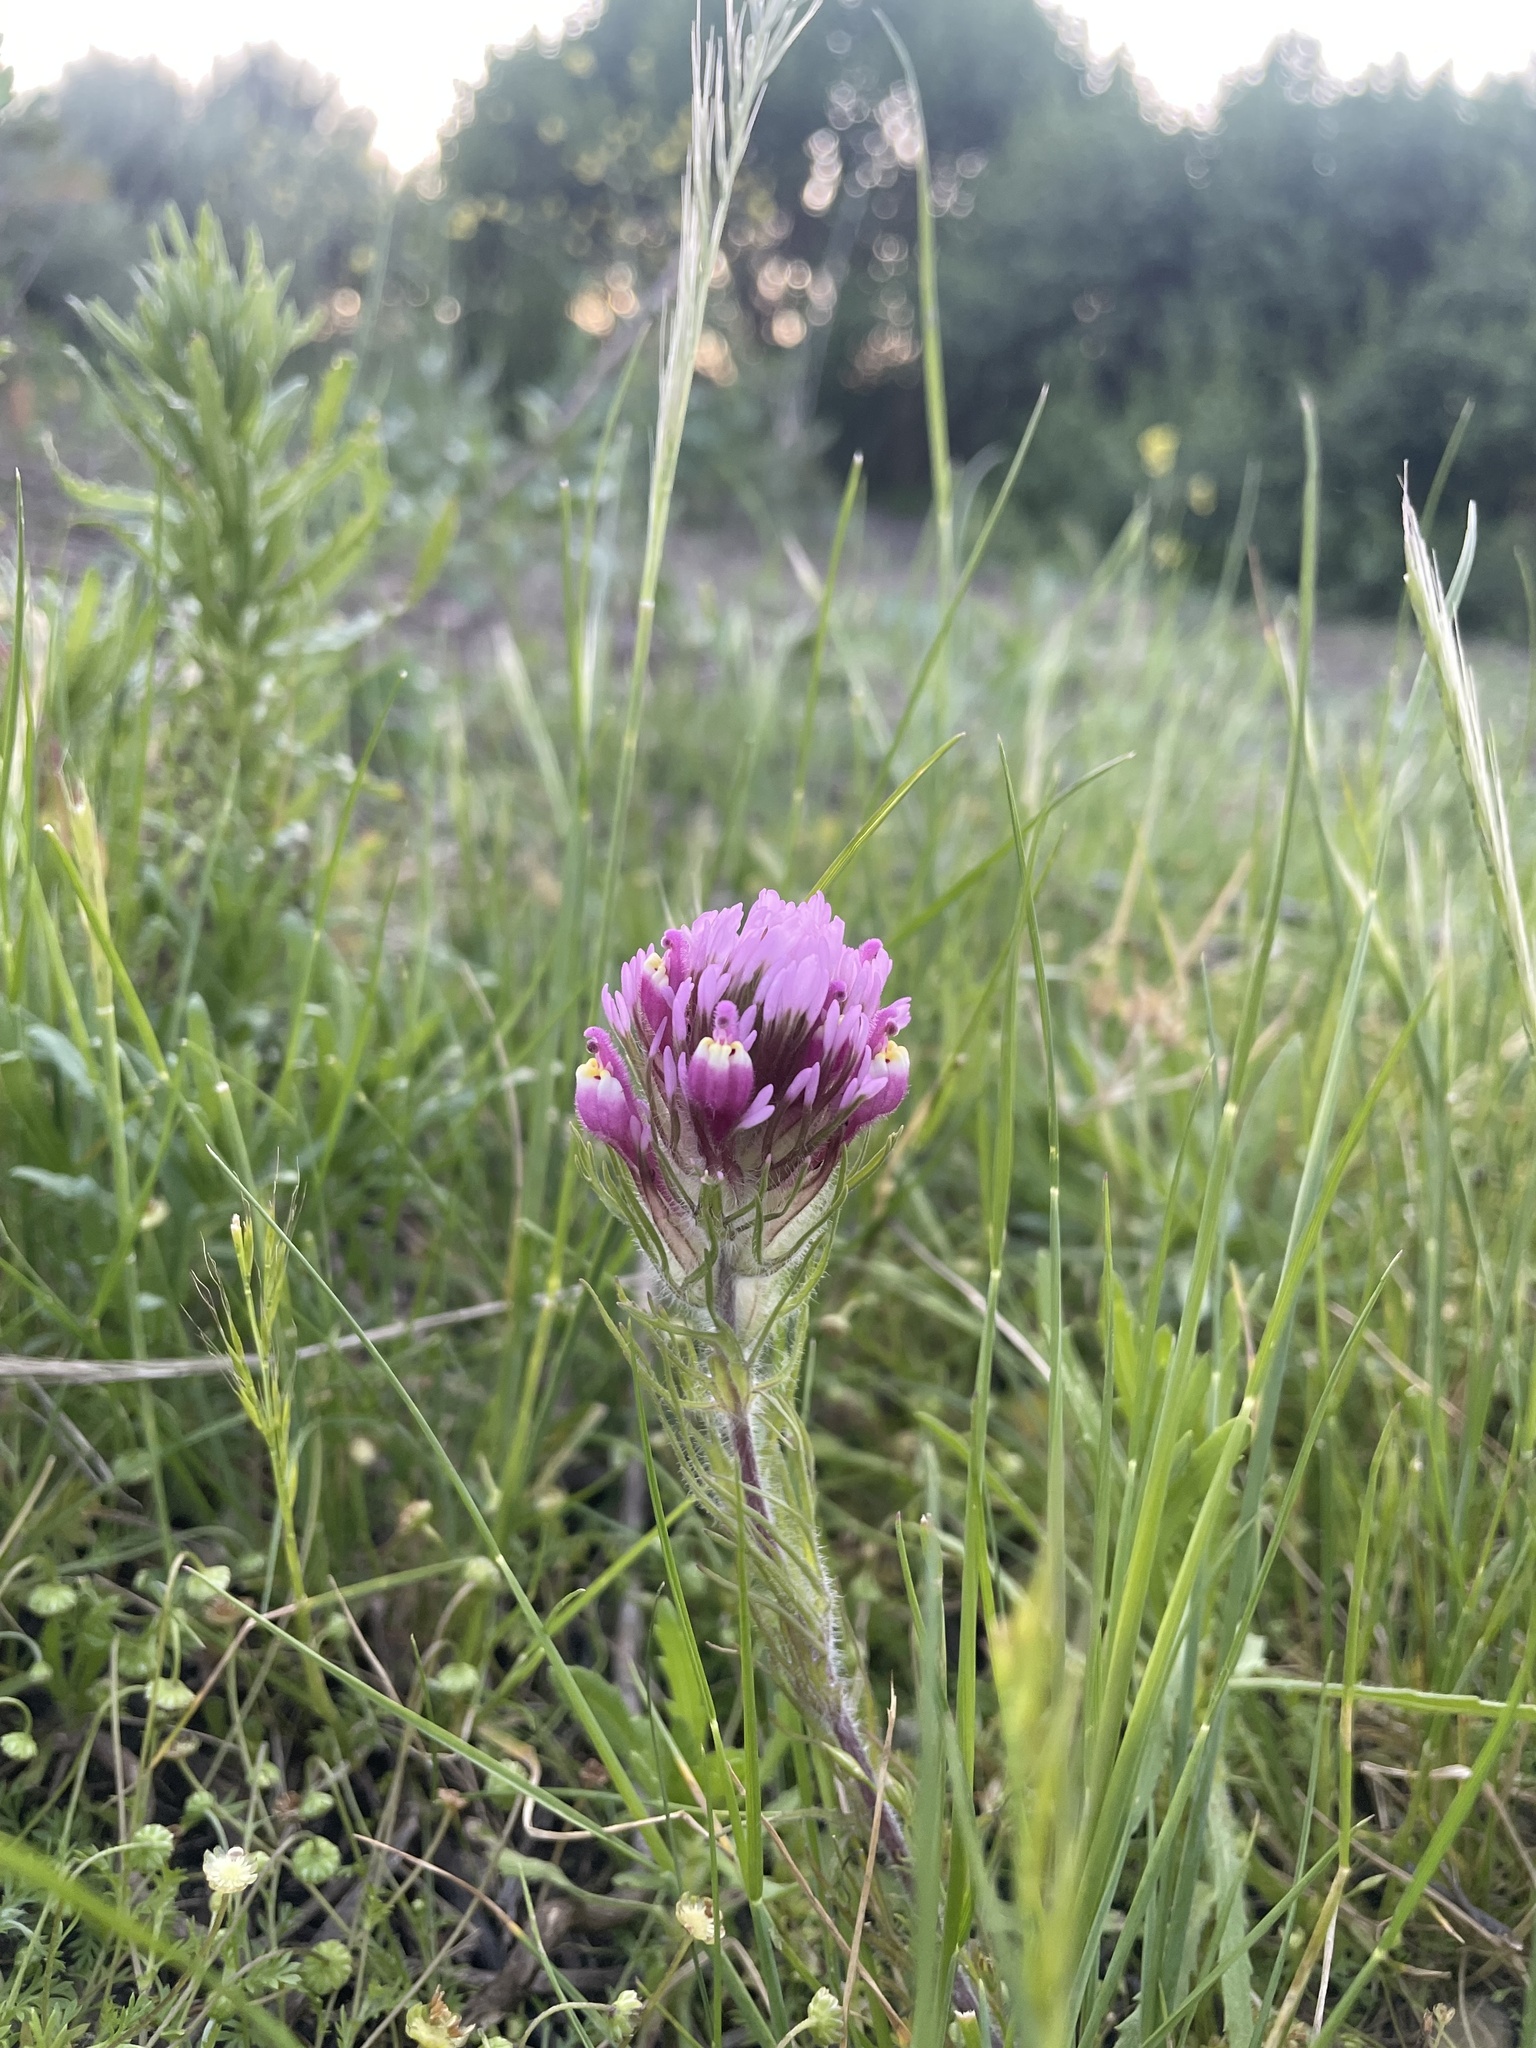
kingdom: Plantae
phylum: Tracheophyta
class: Magnoliopsida
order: Lamiales
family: Orobanchaceae
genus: Castilleja
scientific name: Castilleja exserta
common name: Purple owl-clover
